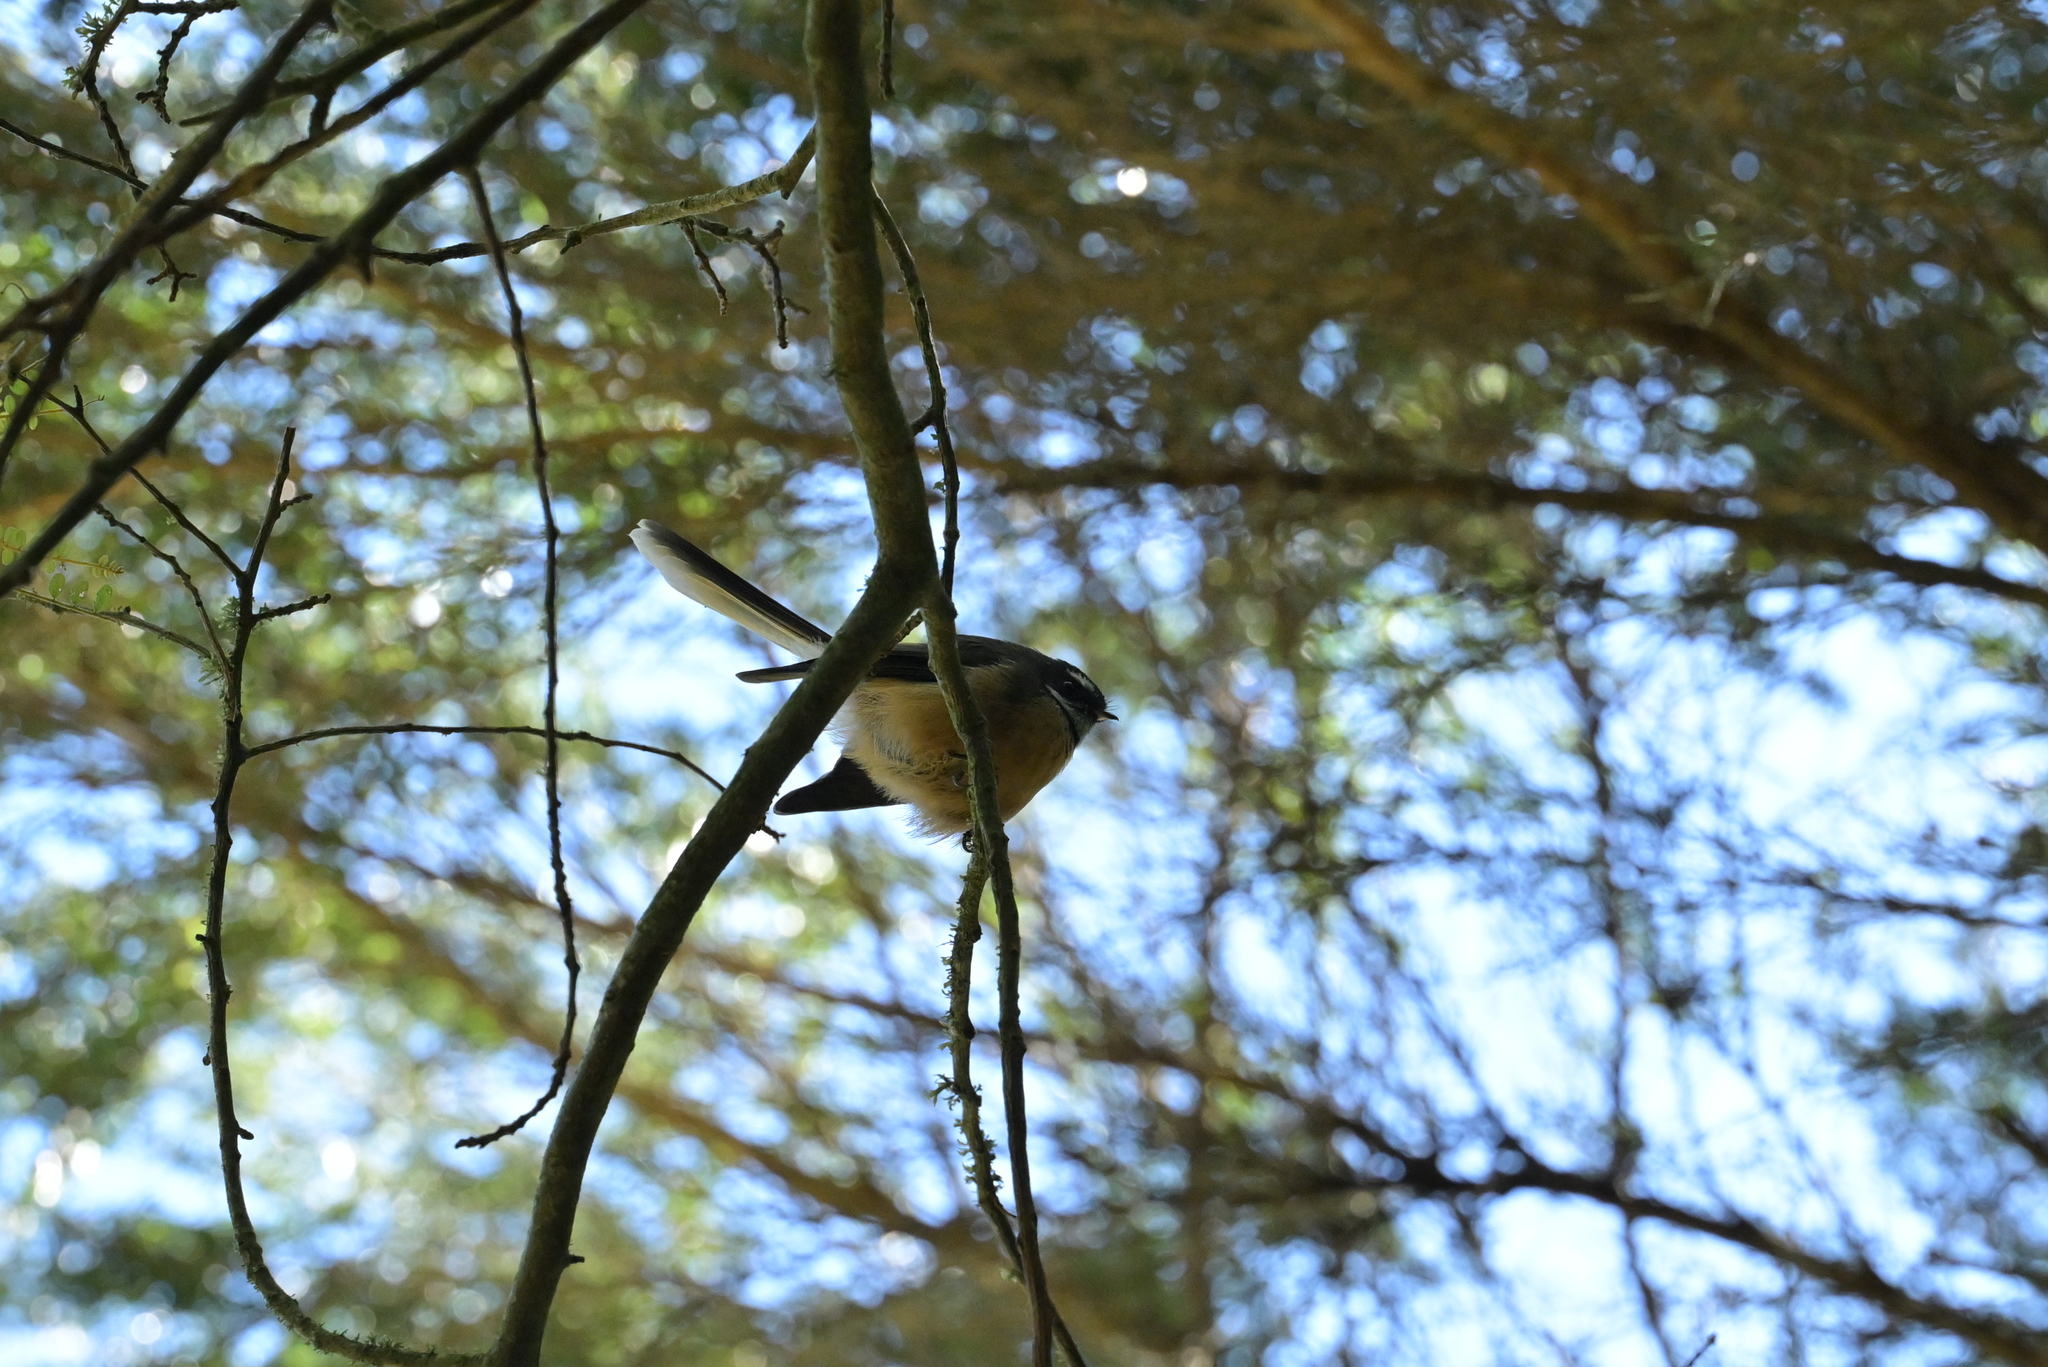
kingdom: Animalia
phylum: Chordata
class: Aves
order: Passeriformes
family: Rhipiduridae
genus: Rhipidura
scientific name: Rhipidura fuliginosa
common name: New zealand fantail
